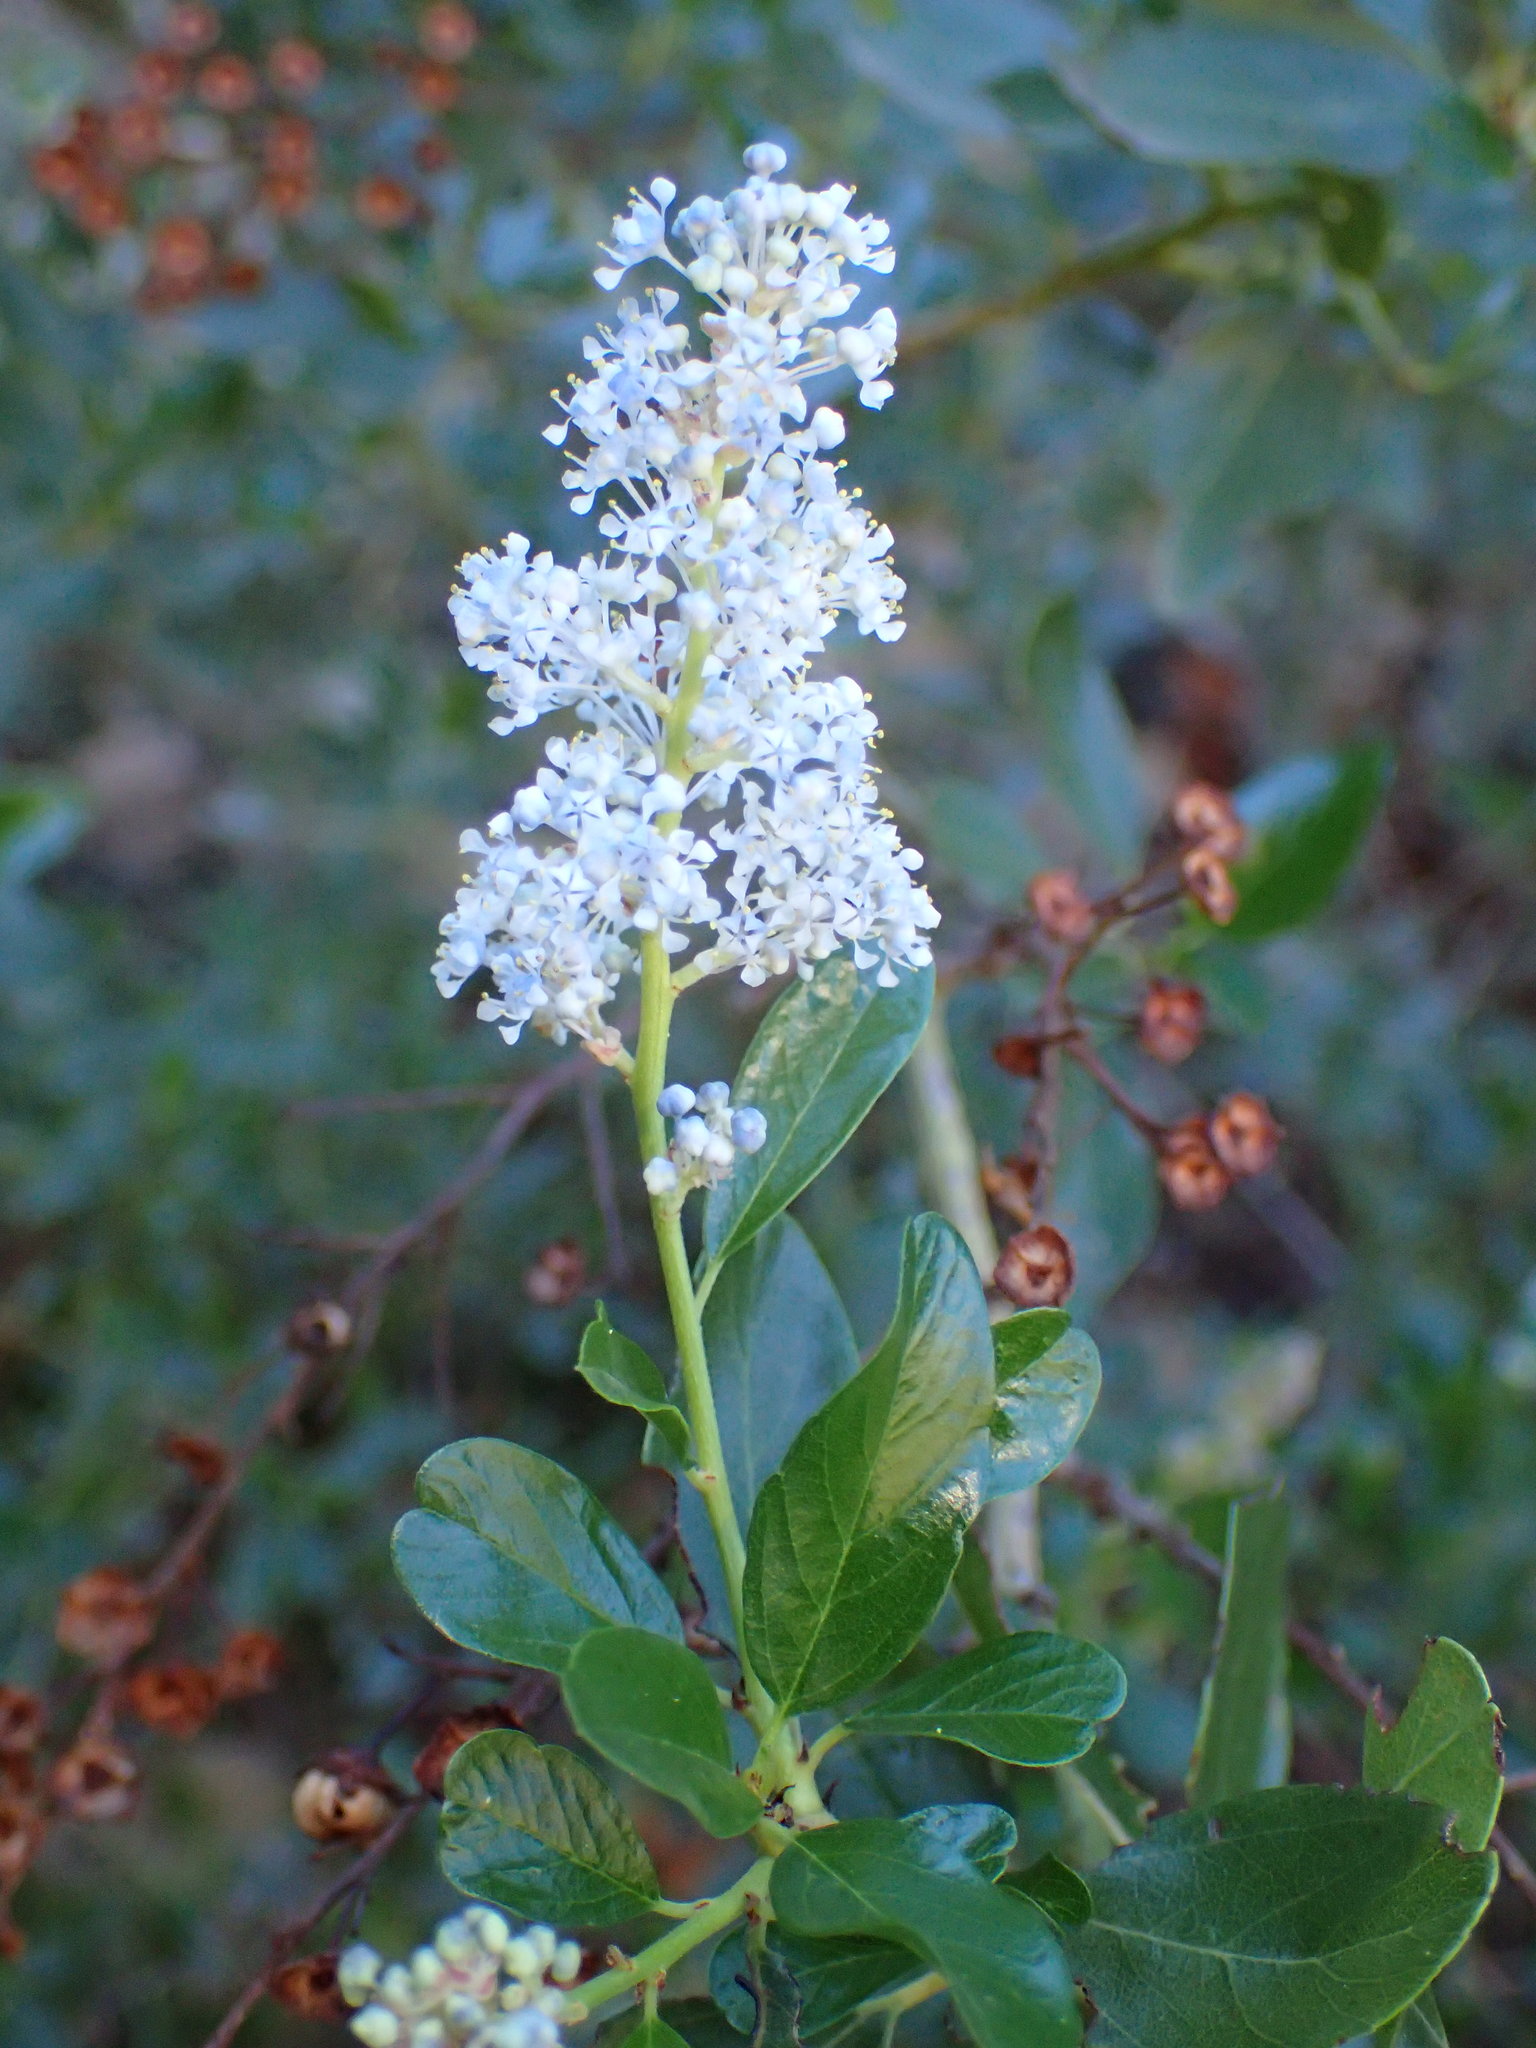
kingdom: Plantae
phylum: Tracheophyta
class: Magnoliopsida
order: Rosales
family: Rhamnaceae
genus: Ceanothus
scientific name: Ceanothus spinosus
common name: Greenbark whitethorn
